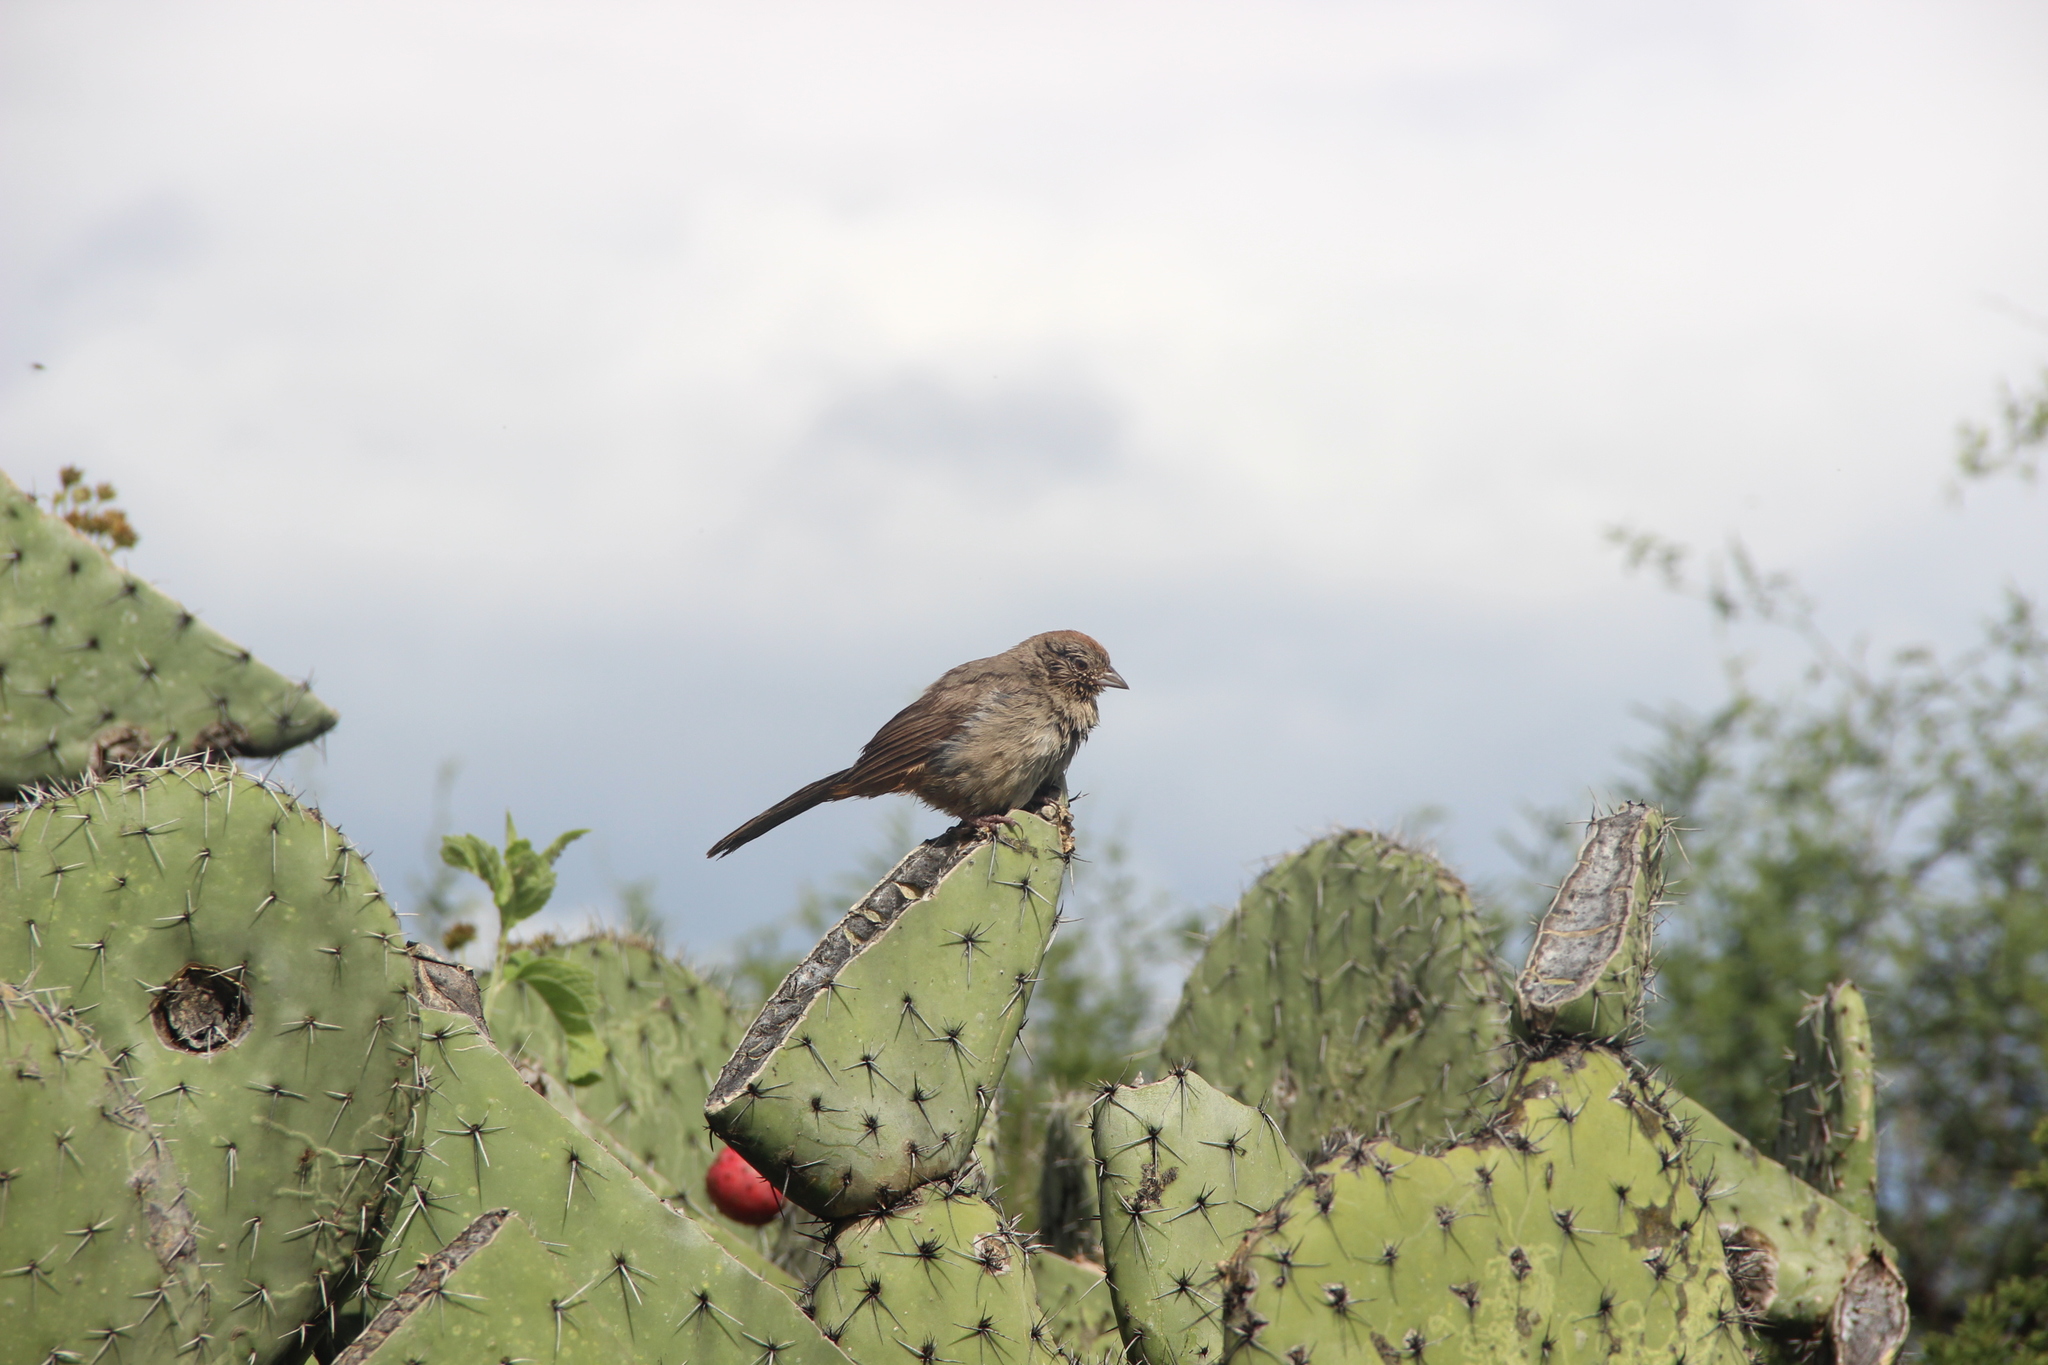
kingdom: Animalia
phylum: Chordata
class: Aves
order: Passeriformes
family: Passerellidae
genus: Melozone
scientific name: Melozone fusca
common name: Canyon towhee
